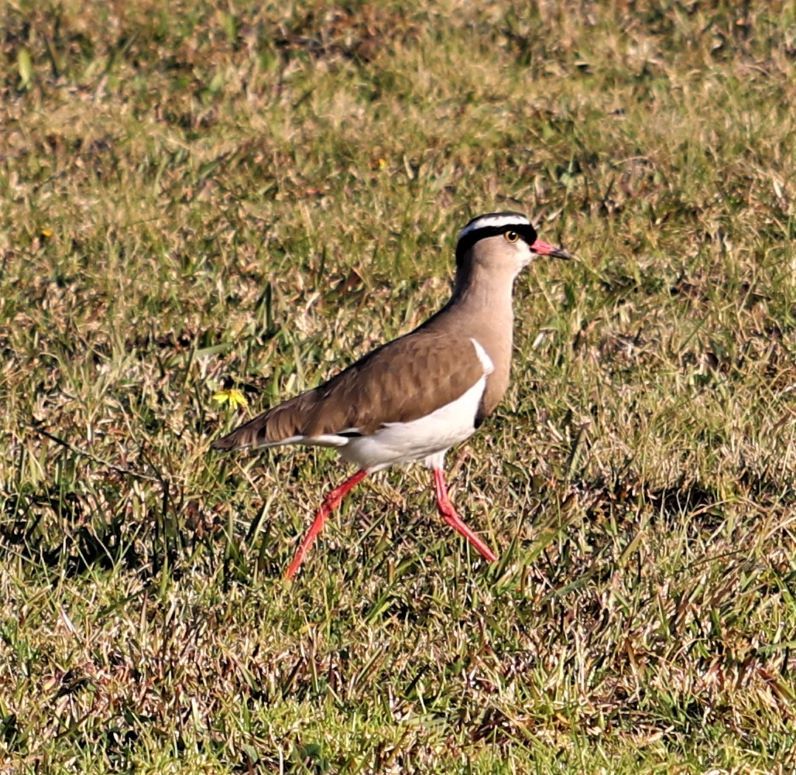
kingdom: Animalia
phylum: Chordata
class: Aves
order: Charadriiformes
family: Charadriidae
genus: Vanellus
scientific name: Vanellus coronatus
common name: Crowned lapwing
